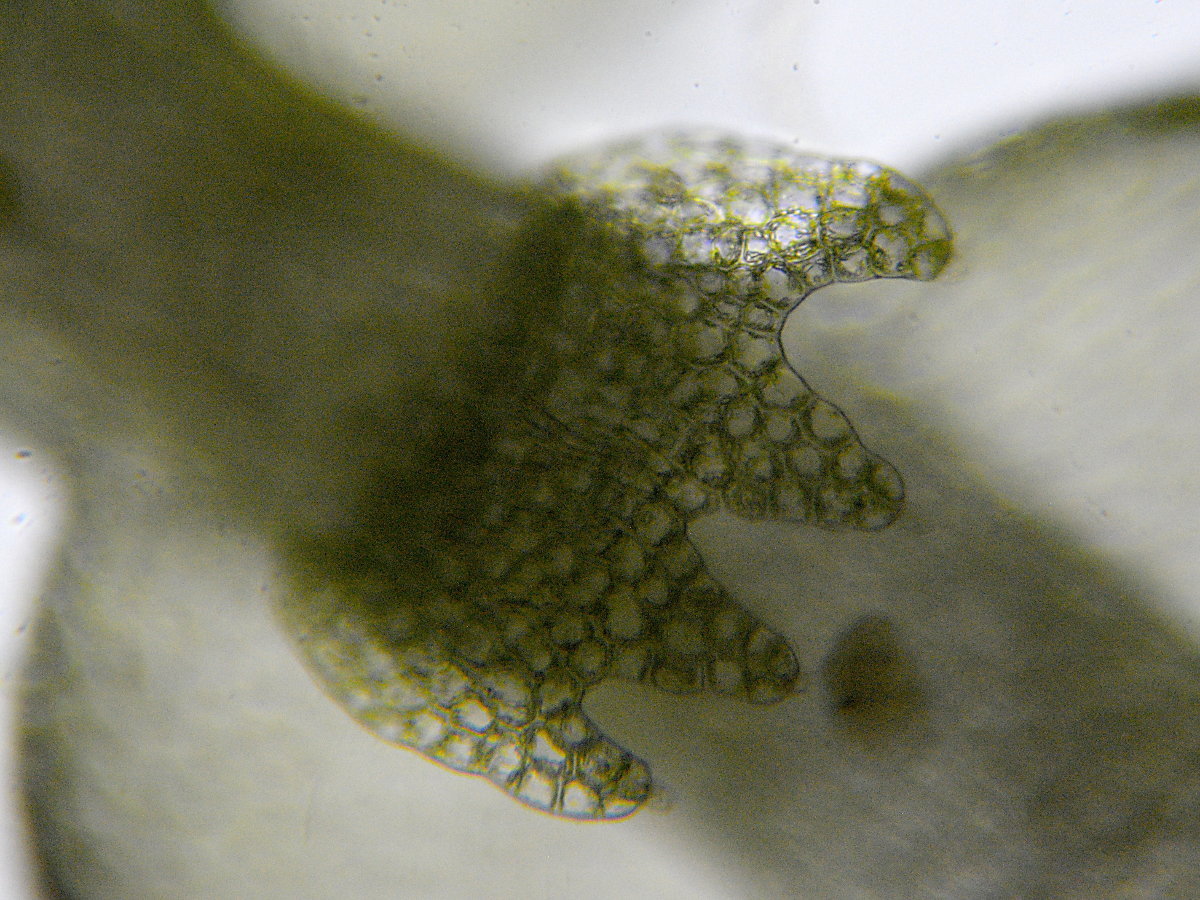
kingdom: Plantae
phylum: Marchantiophyta
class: Jungermanniopsida
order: Jungermanniales
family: Lepidoziaceae
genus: Lepidozia
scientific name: Lepidozia reptans
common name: Creeping fingerwort
